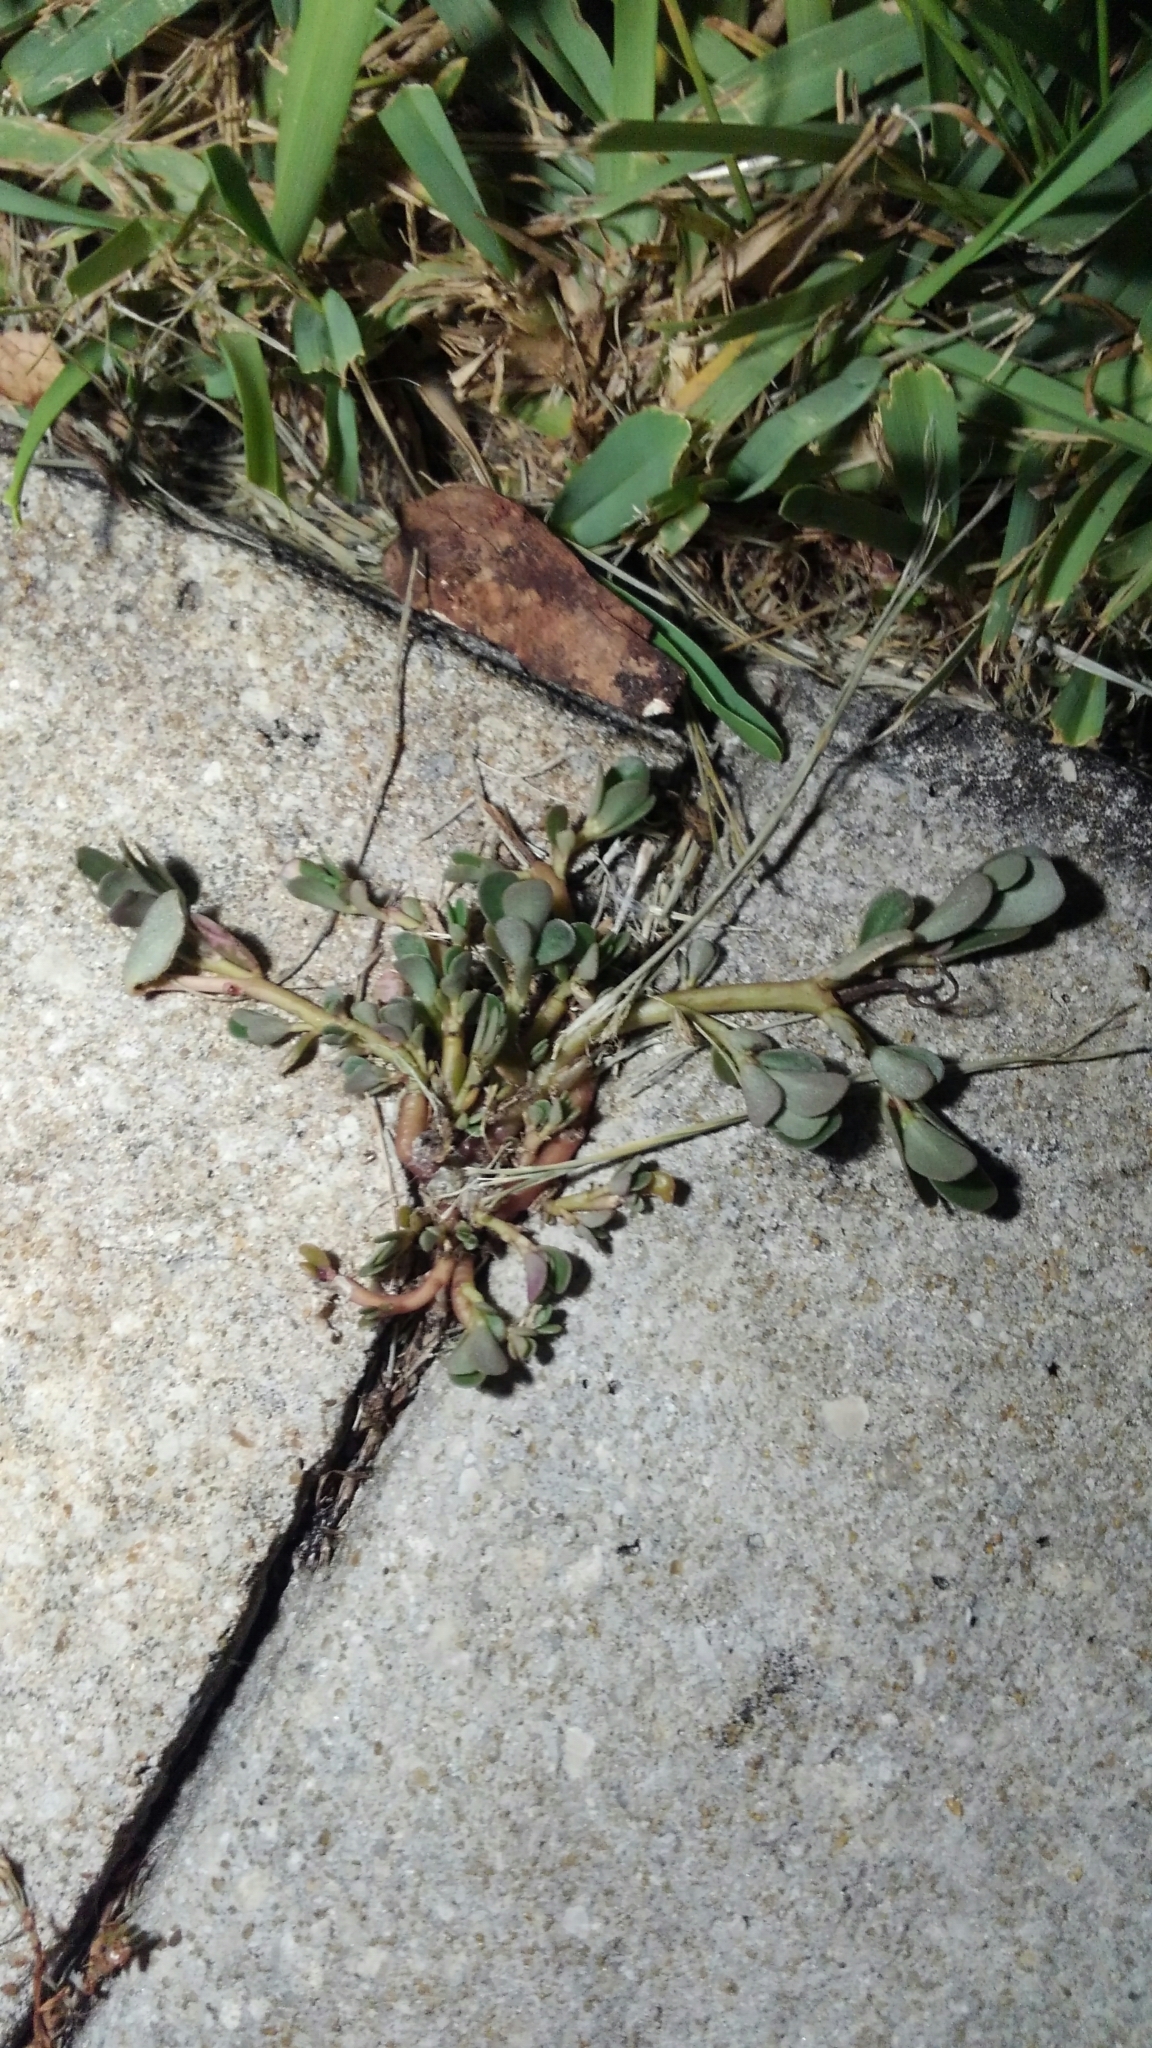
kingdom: Plantae
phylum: Tracheophyta
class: Magnoliopsida
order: Caryophyllales
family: Portulacaceae
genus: Portulaca
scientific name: Portulaca oleracea
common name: Common purslane
